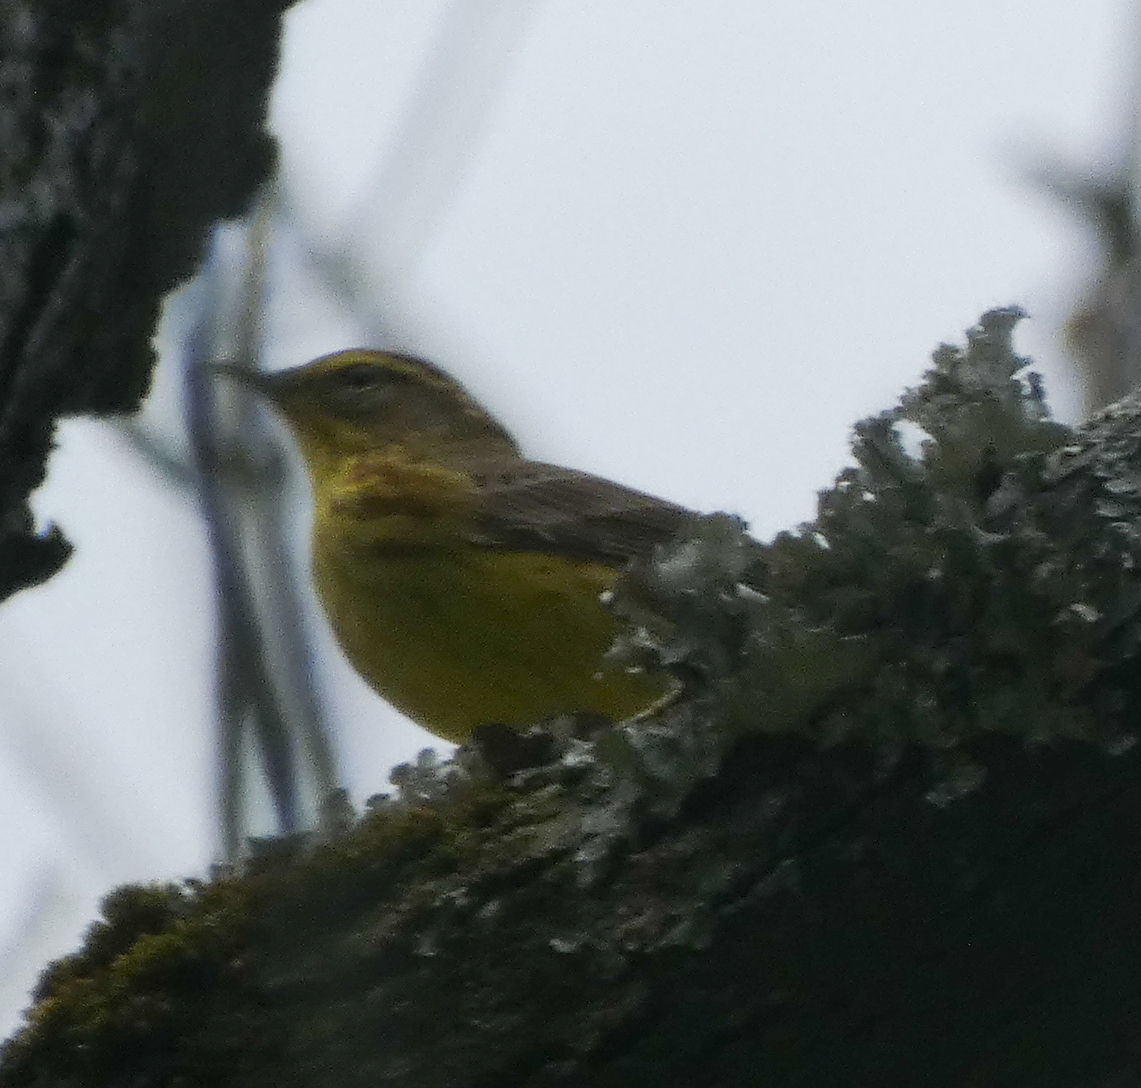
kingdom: Animalia
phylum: Chordata
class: Aves
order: Passeriformes
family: Parulidae
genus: Setophaga
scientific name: Setophaga palmarum
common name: Palm warbler
